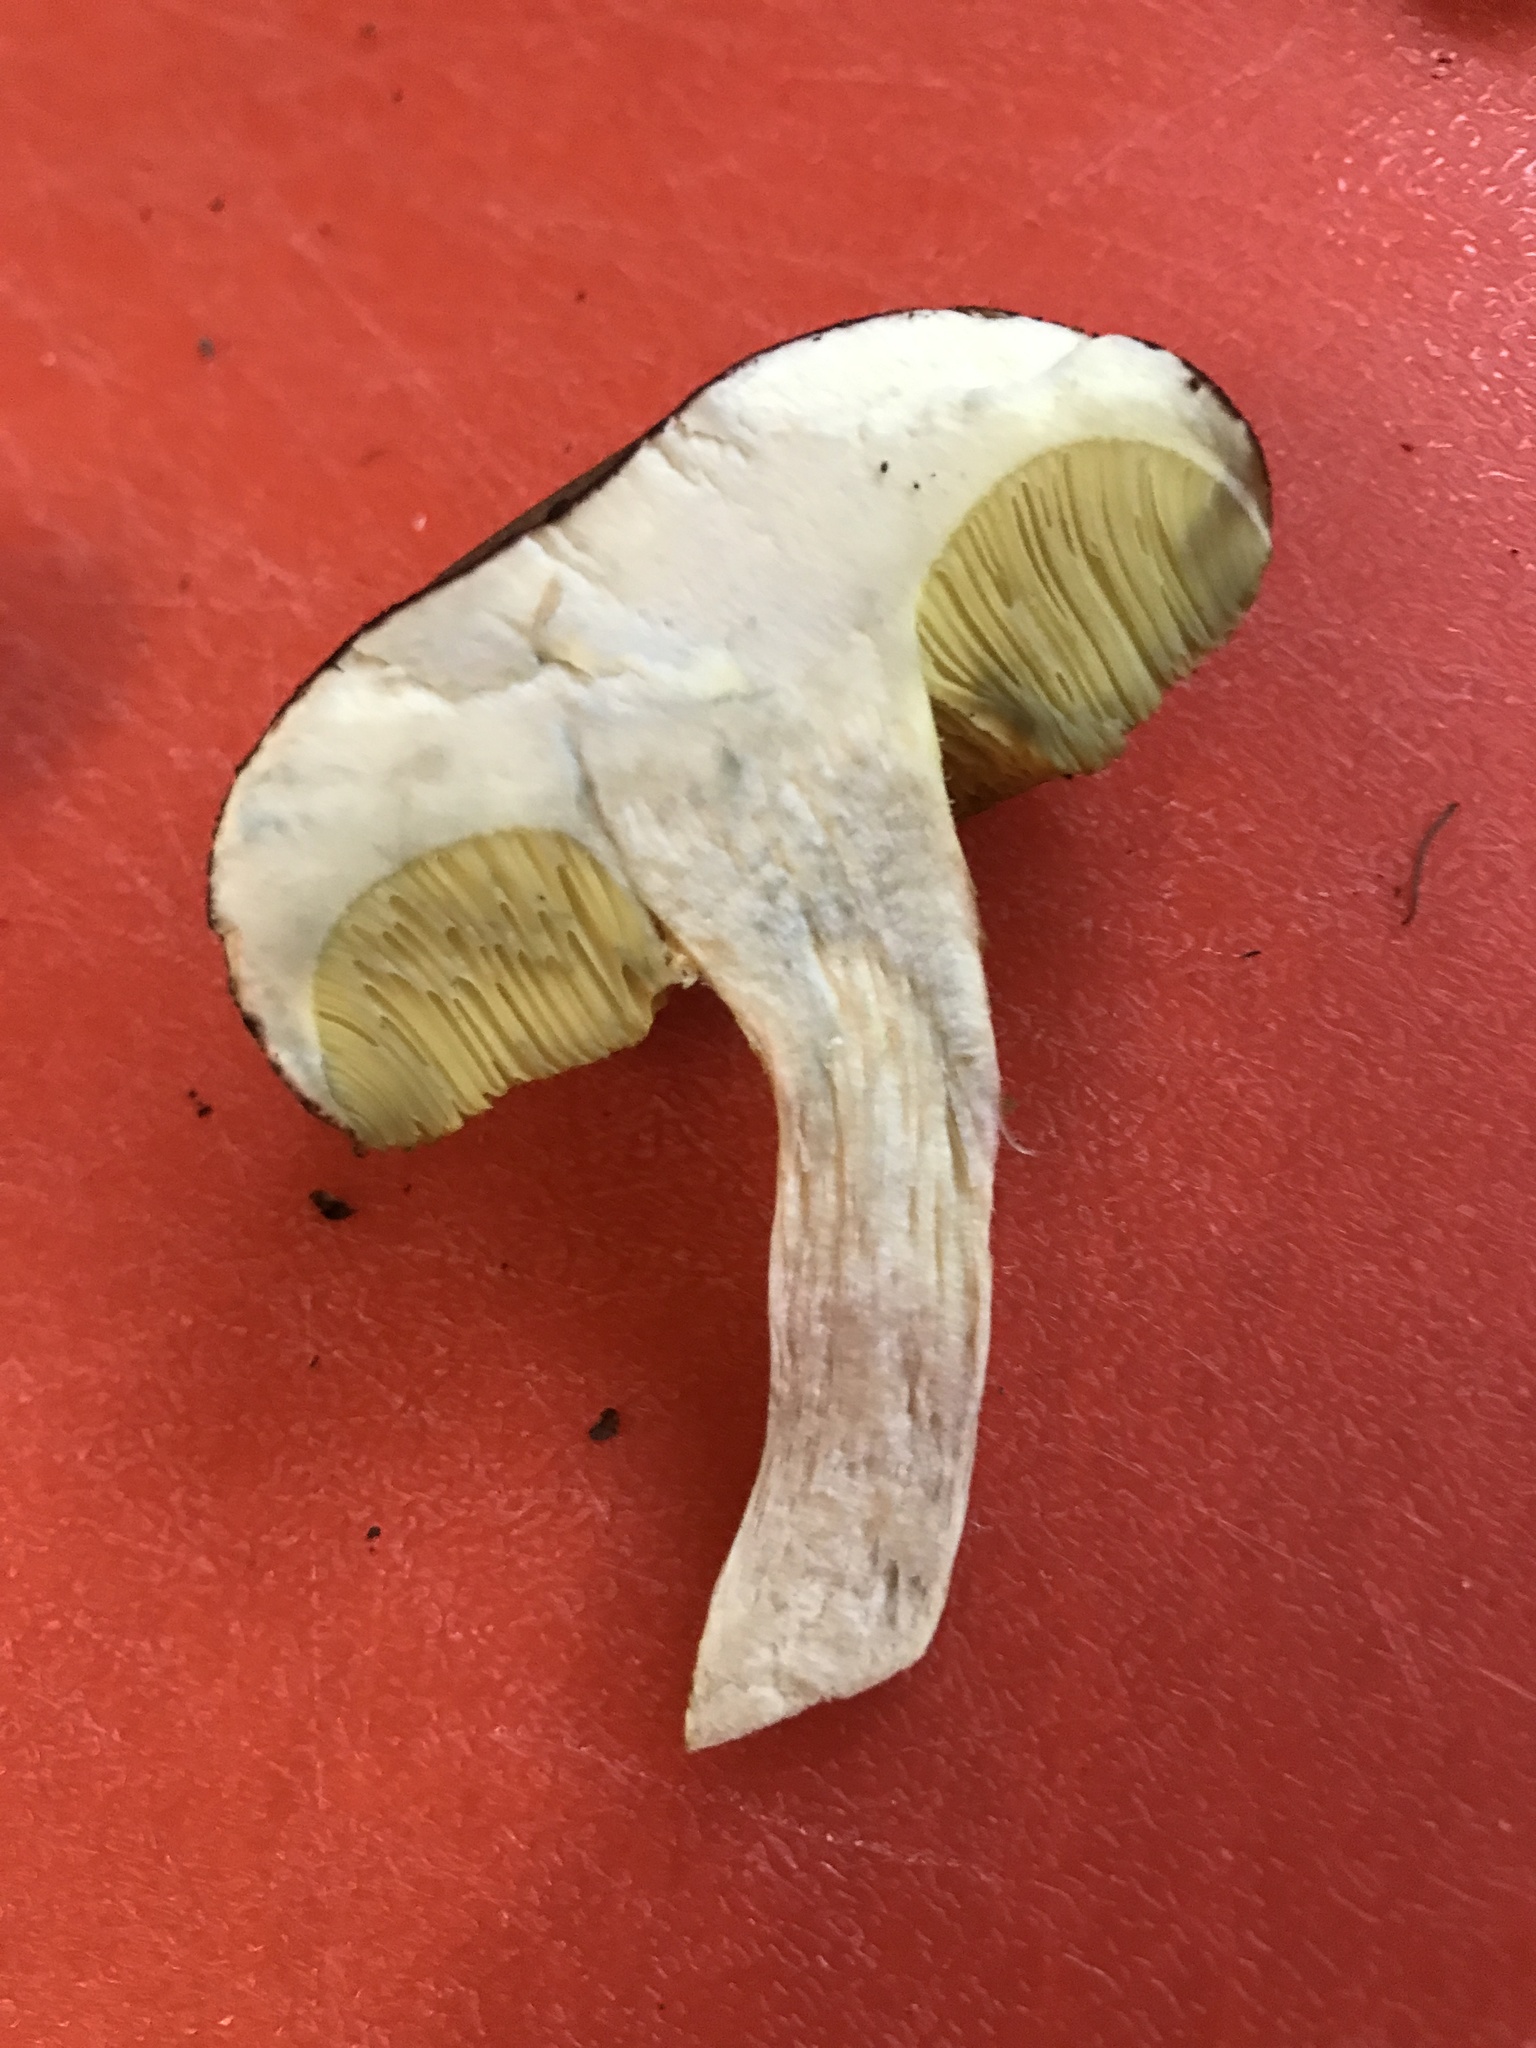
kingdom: Fungi
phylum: Basidiomycota
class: Agaricomycetes
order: Boletales
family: Boletaceae
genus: Xerocomus
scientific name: Xerocomus subtomentosus
